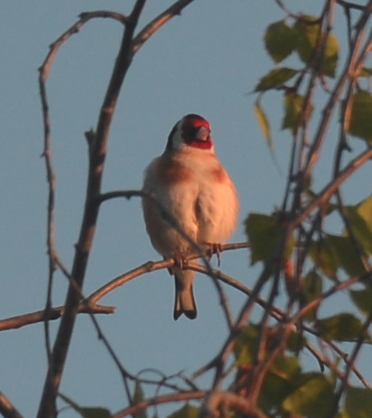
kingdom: Animalia
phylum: Chordata
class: Aves
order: Passeriformes
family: Fringillidae
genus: Carduelis
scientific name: Carduelis carduelis
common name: European goldfinch
